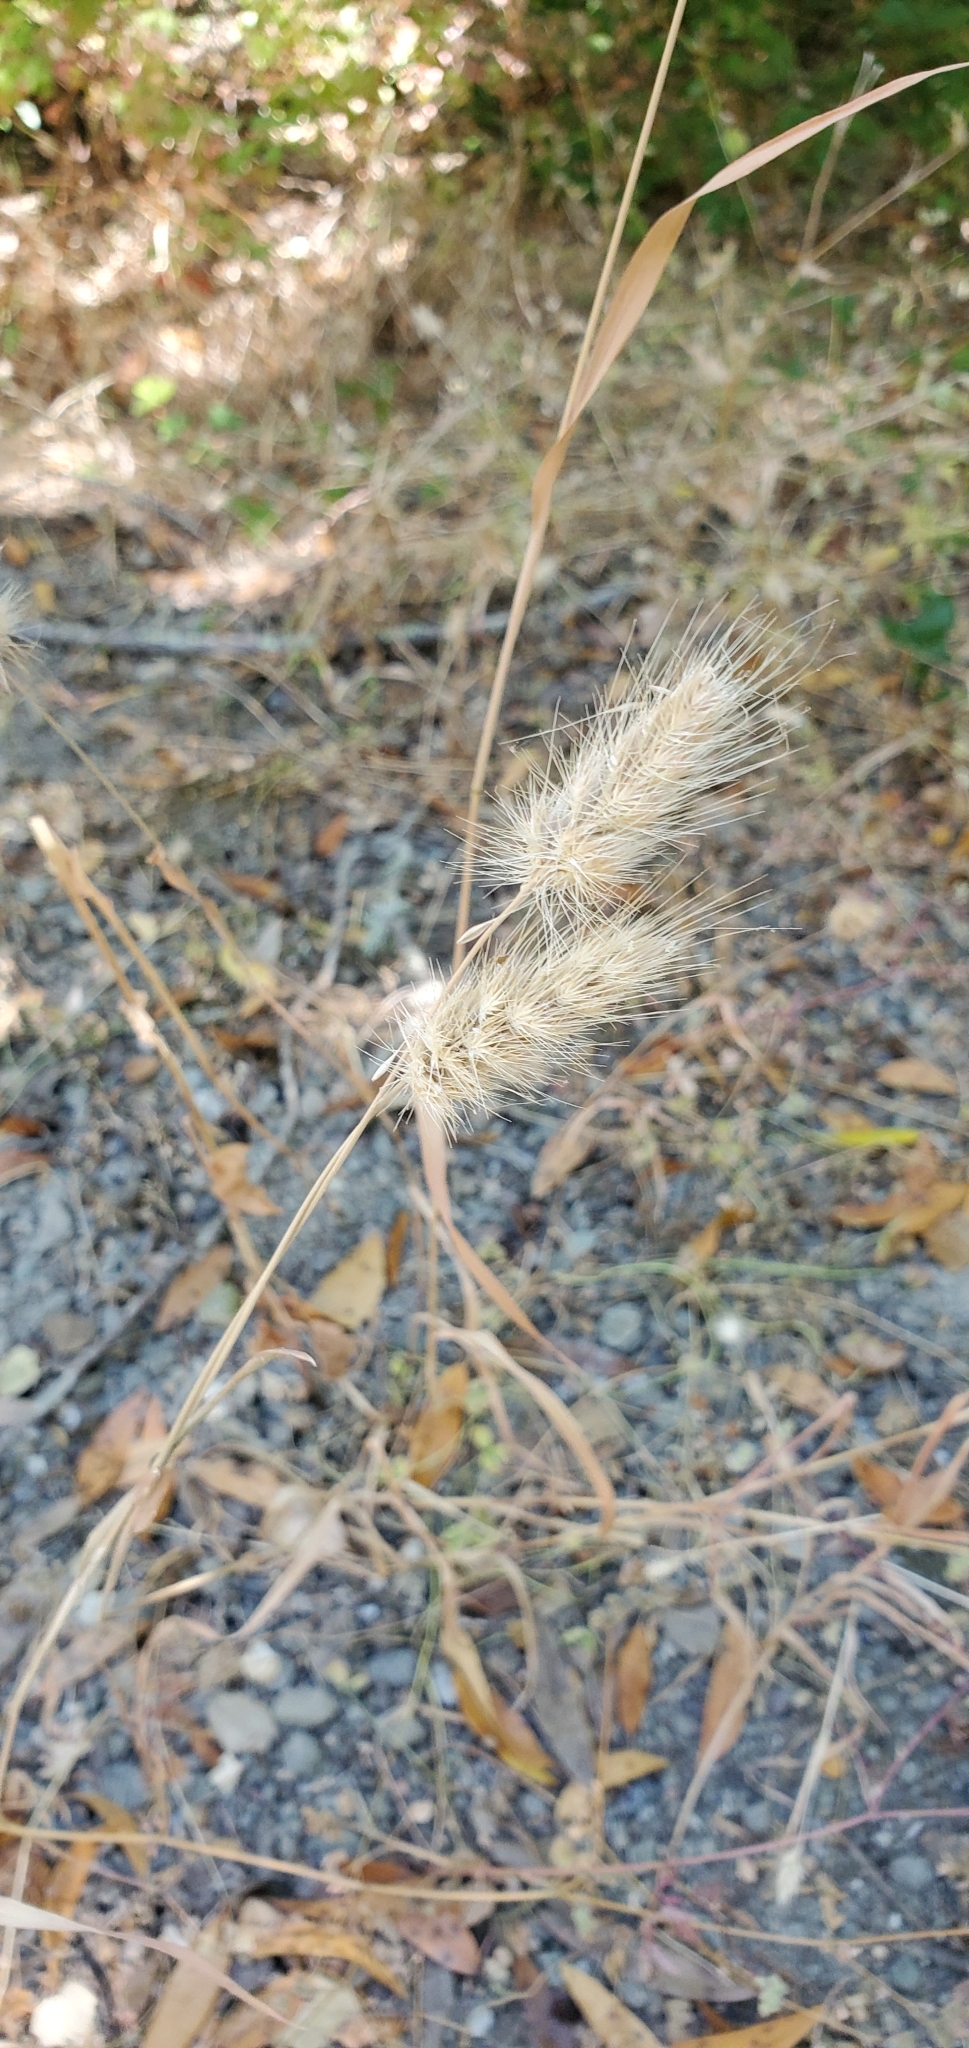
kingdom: Plantae
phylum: Tracheophyta
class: Liliopsida
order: Poales
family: Poaceae
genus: Cynosurus
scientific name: Cynosurus echinatus
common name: Rough dog's-tail
